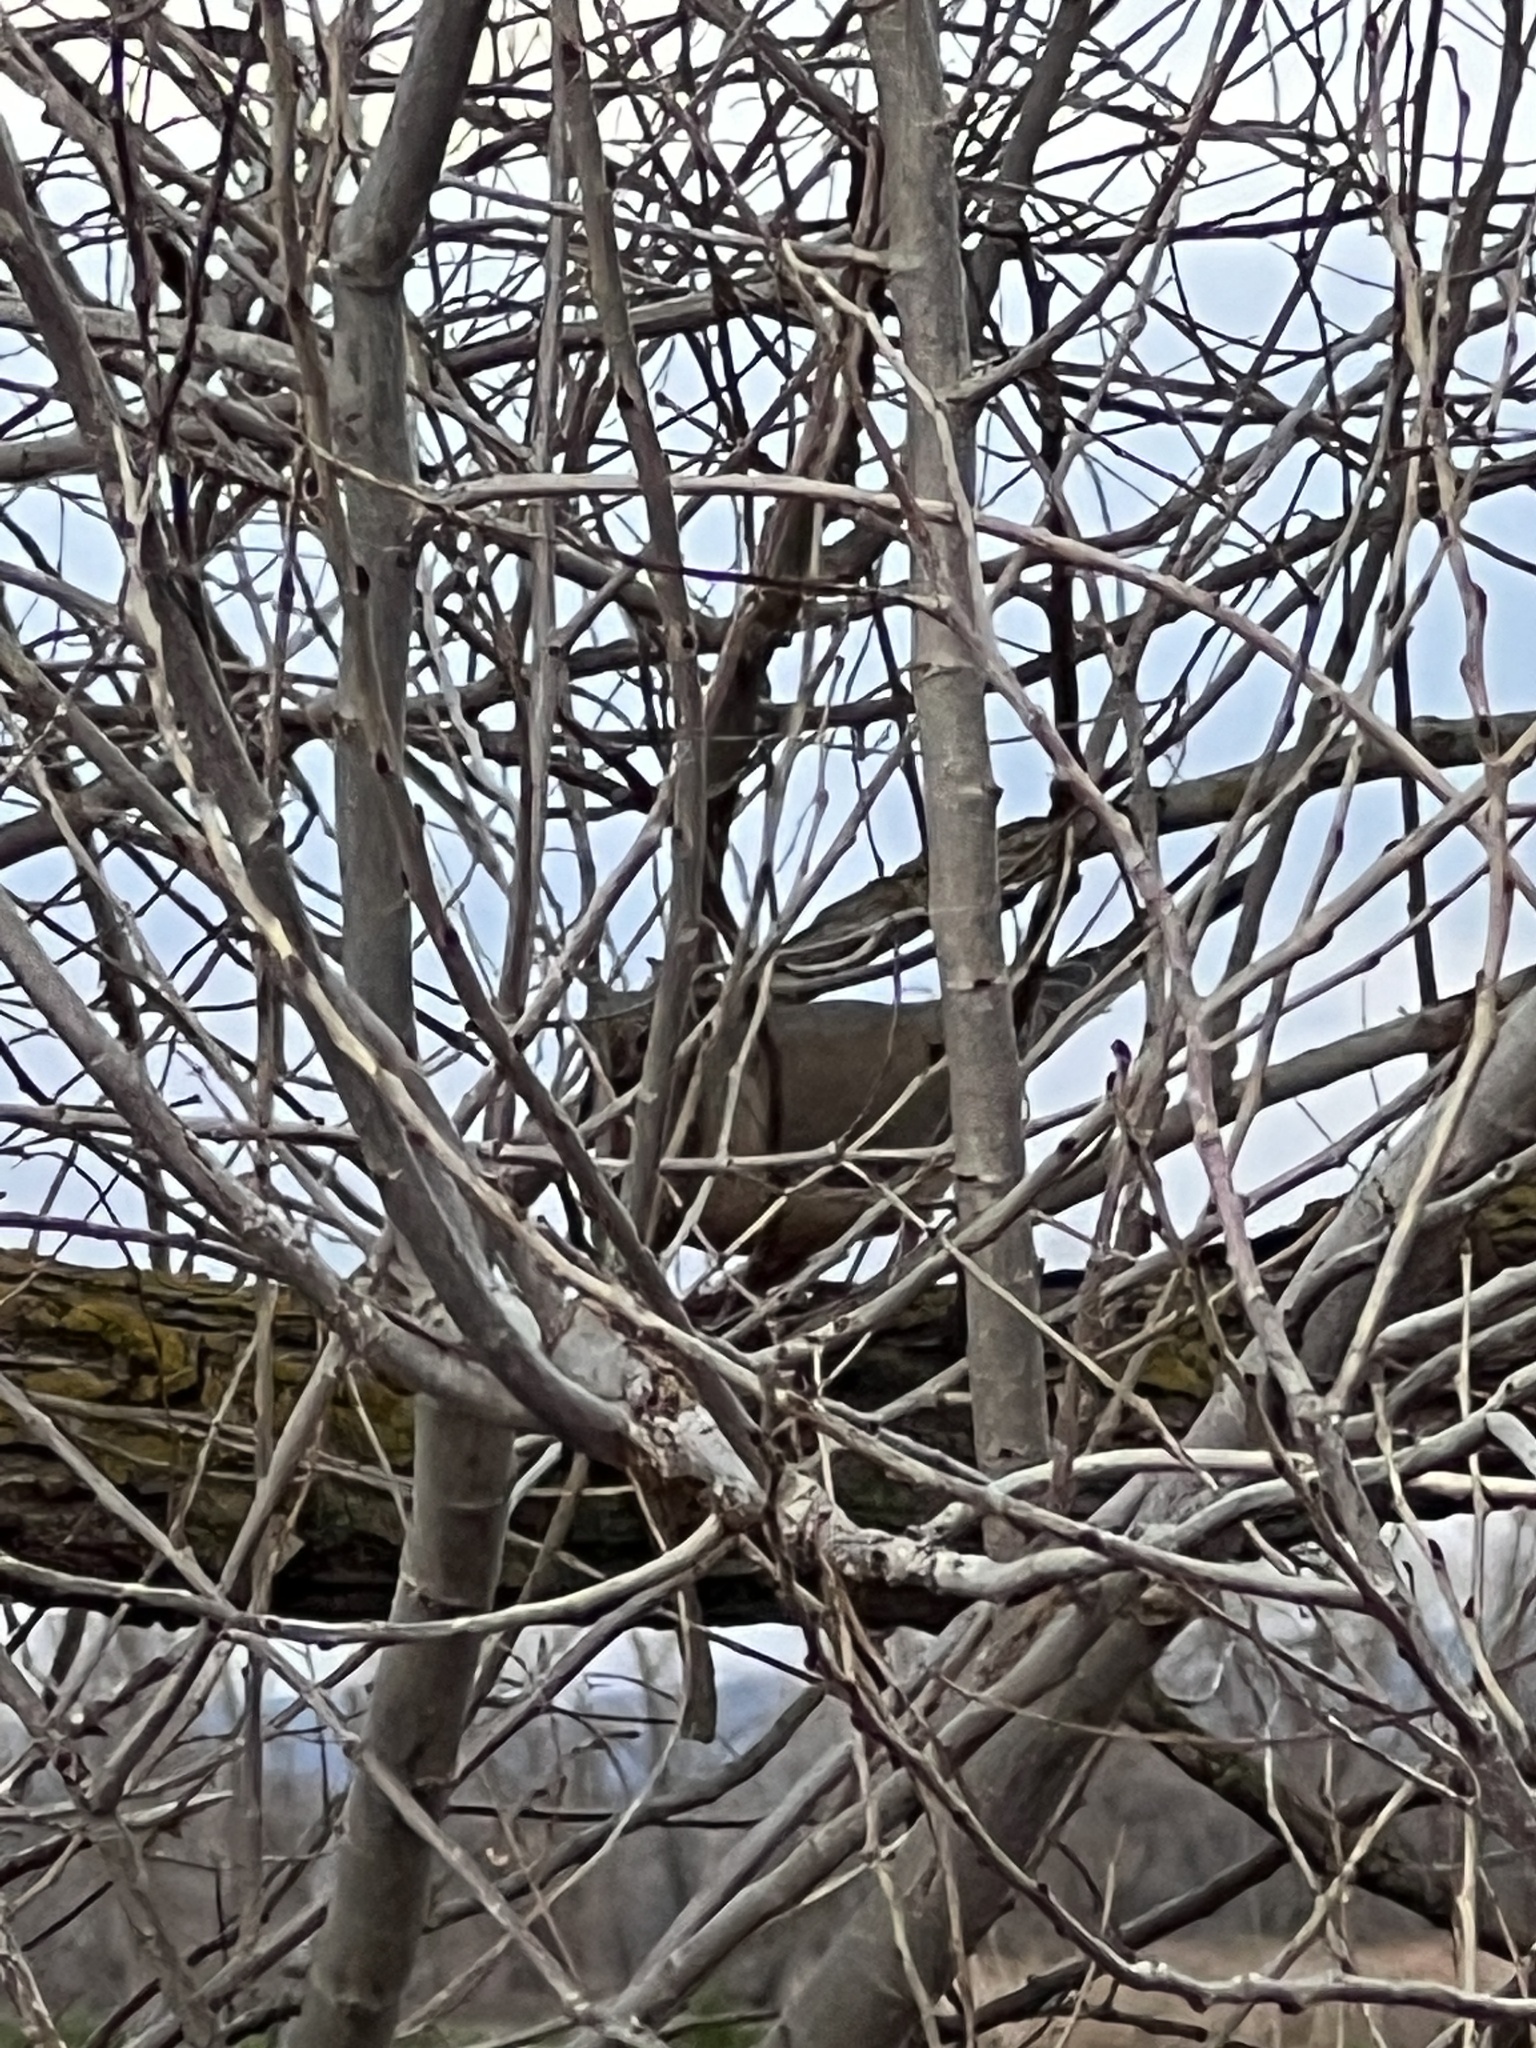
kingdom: Animalia
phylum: Chordata
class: Aves
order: Columbiformes
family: Columbidae
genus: Zenaida
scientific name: Zenaida macroura
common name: Mourning dove
